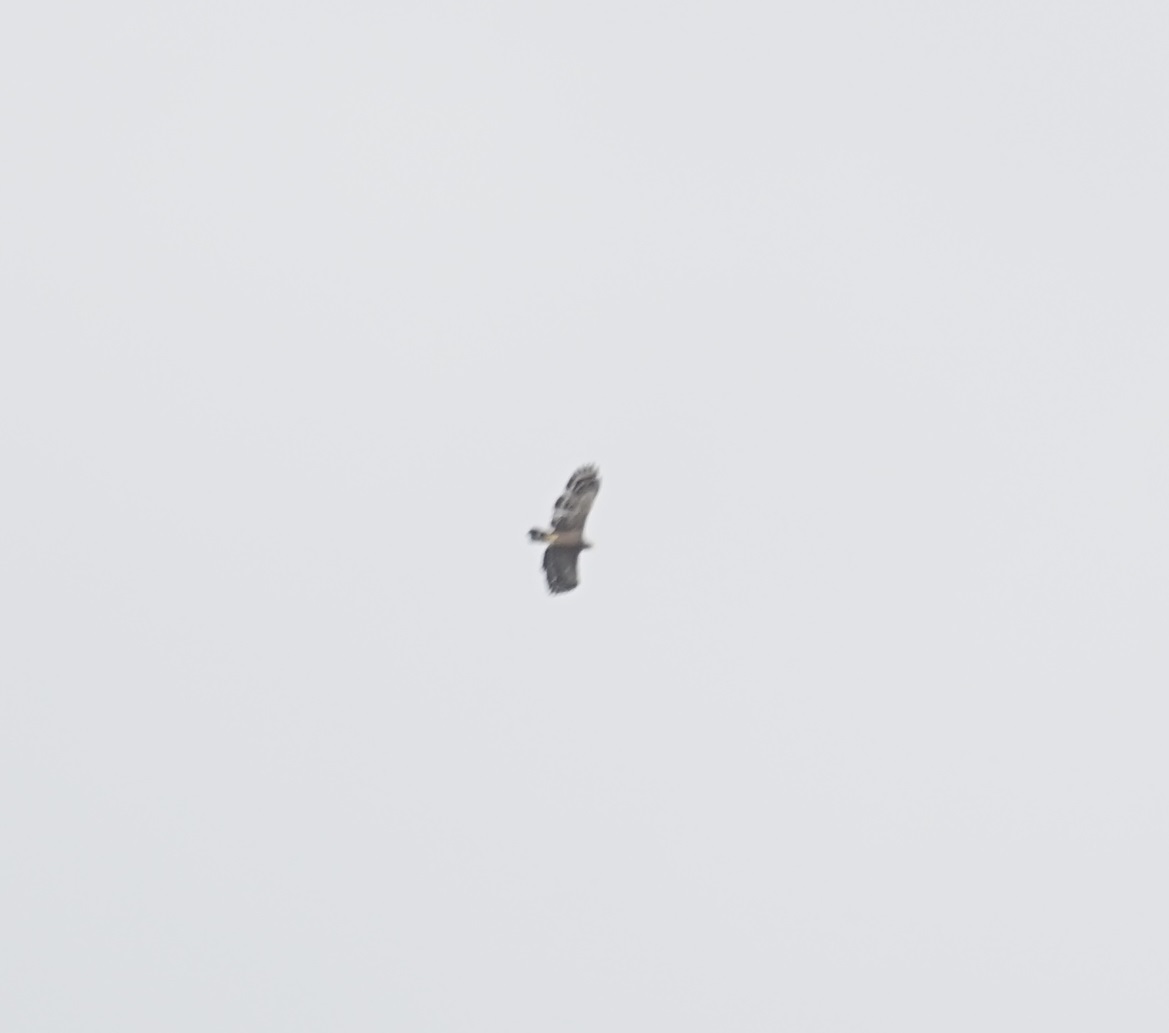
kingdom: Animalia
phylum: Chordata
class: Aves
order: Accipitriformes
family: Accipitridae
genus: Spilornis
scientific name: Spilornis cheela
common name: Crested serpent eagle
